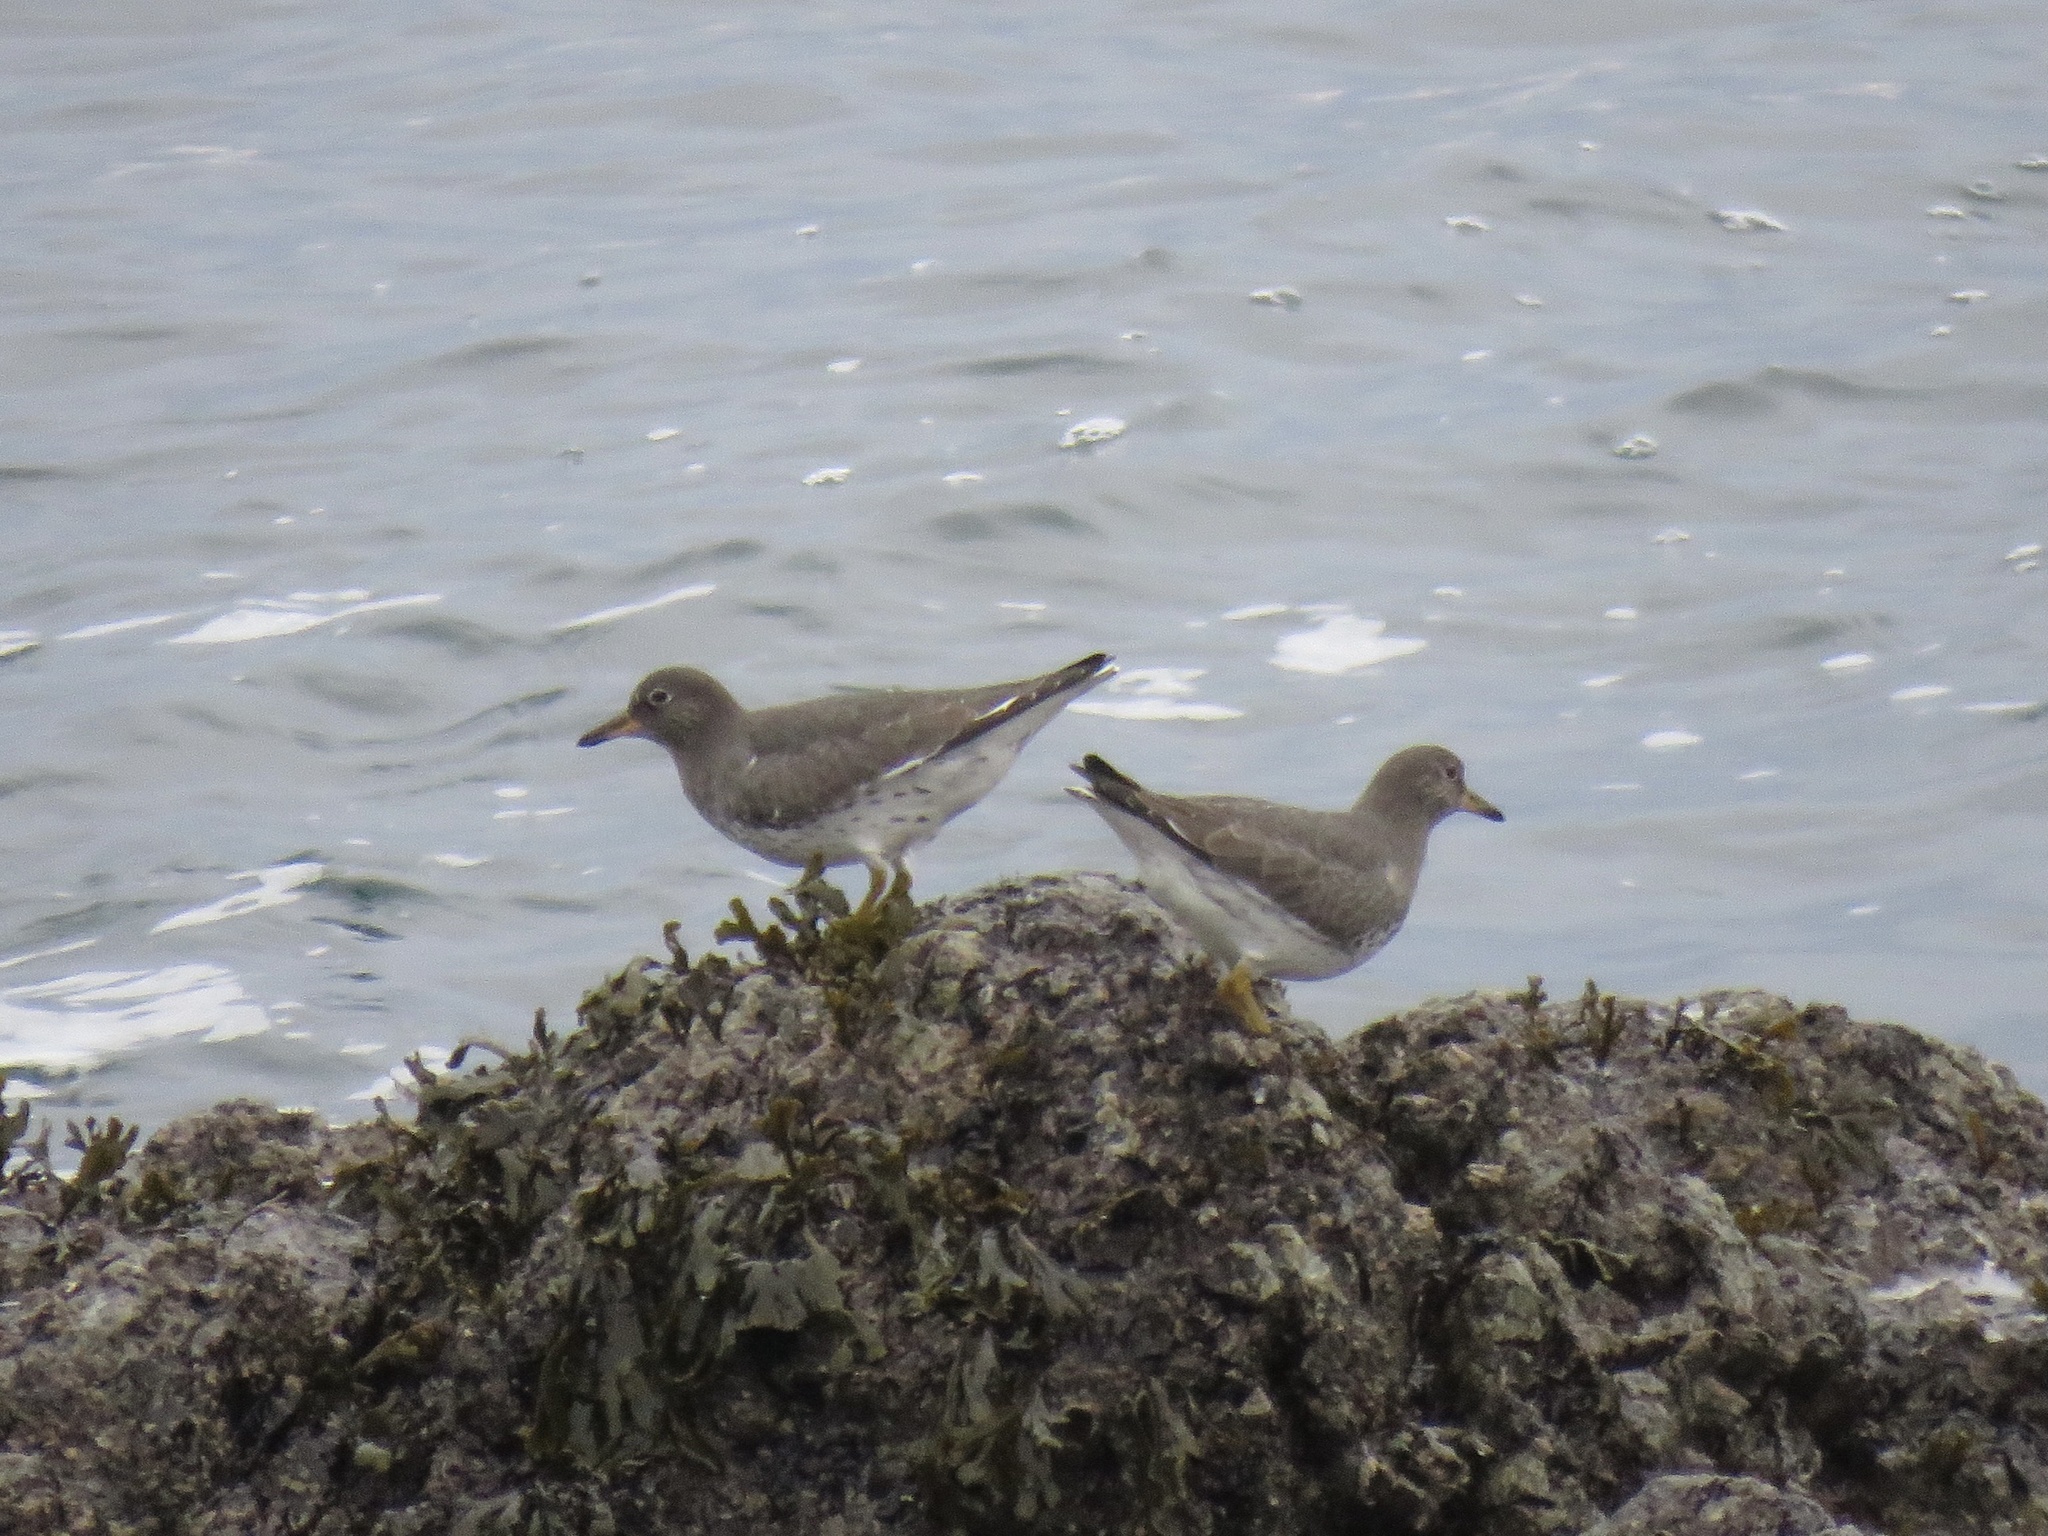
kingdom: Animalia
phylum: Chordata
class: Aves
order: Charadriiformes
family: Scolopacidae
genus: Calidris
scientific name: Calidris virgata
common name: Surfbird
